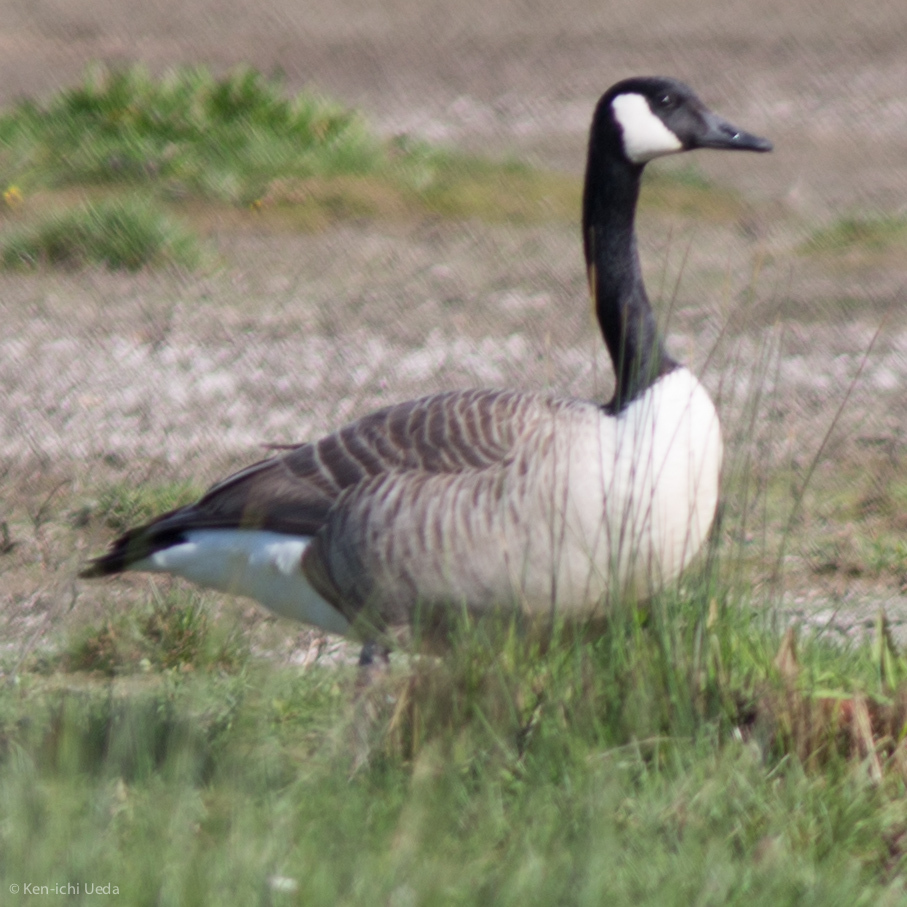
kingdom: Animalia
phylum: Chordata
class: Aves
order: Anseriformes
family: Anatidae
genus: Branta
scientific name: Branta canadensis
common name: Canada goose
